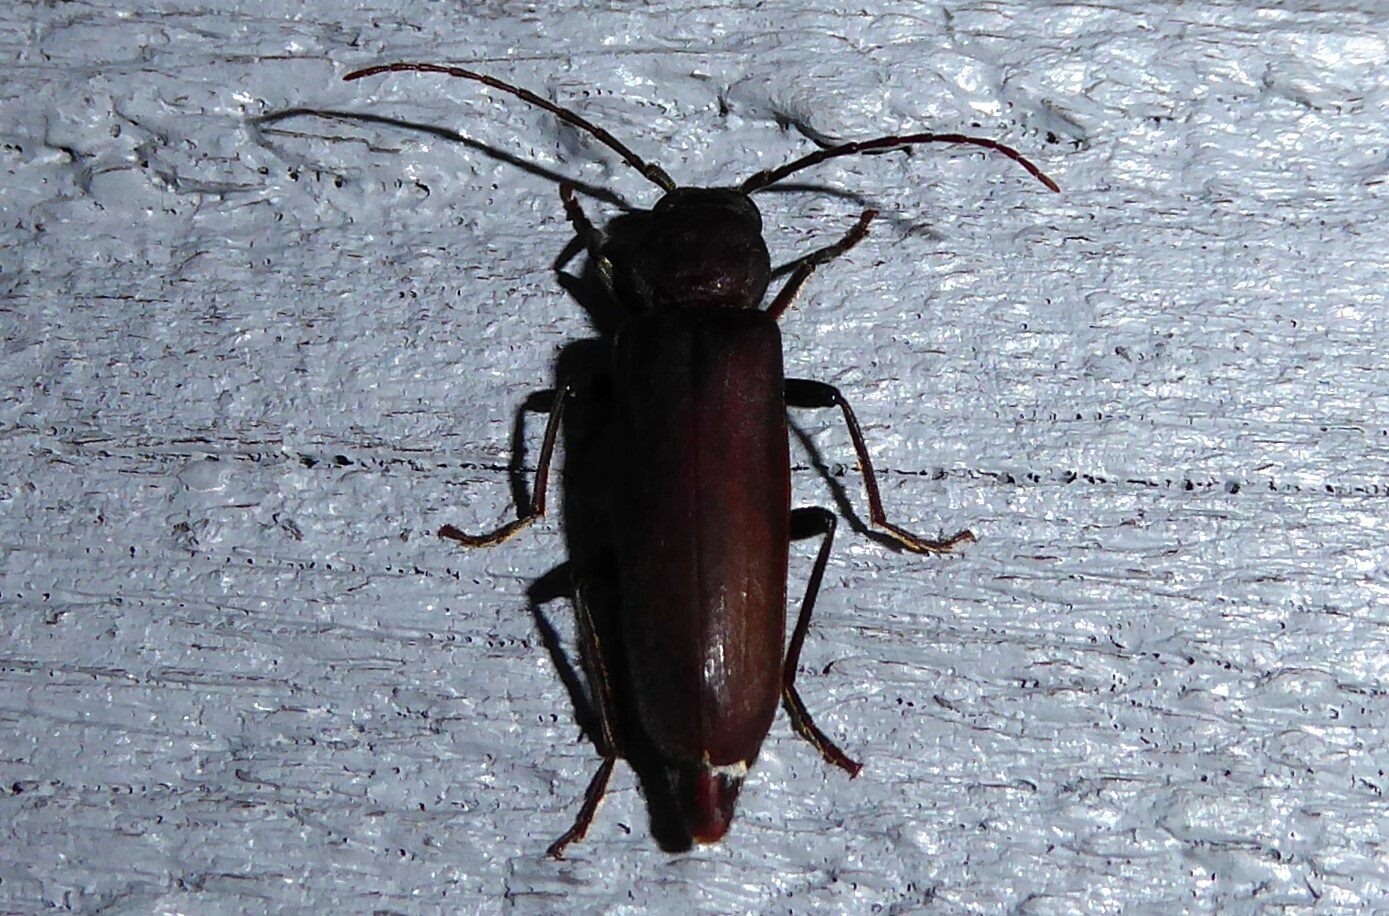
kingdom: Animalia
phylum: Arthropoda
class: Insecta
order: Coleoptera
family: Cerambycidae
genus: Arhopalus
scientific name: Arhopalus ferus
